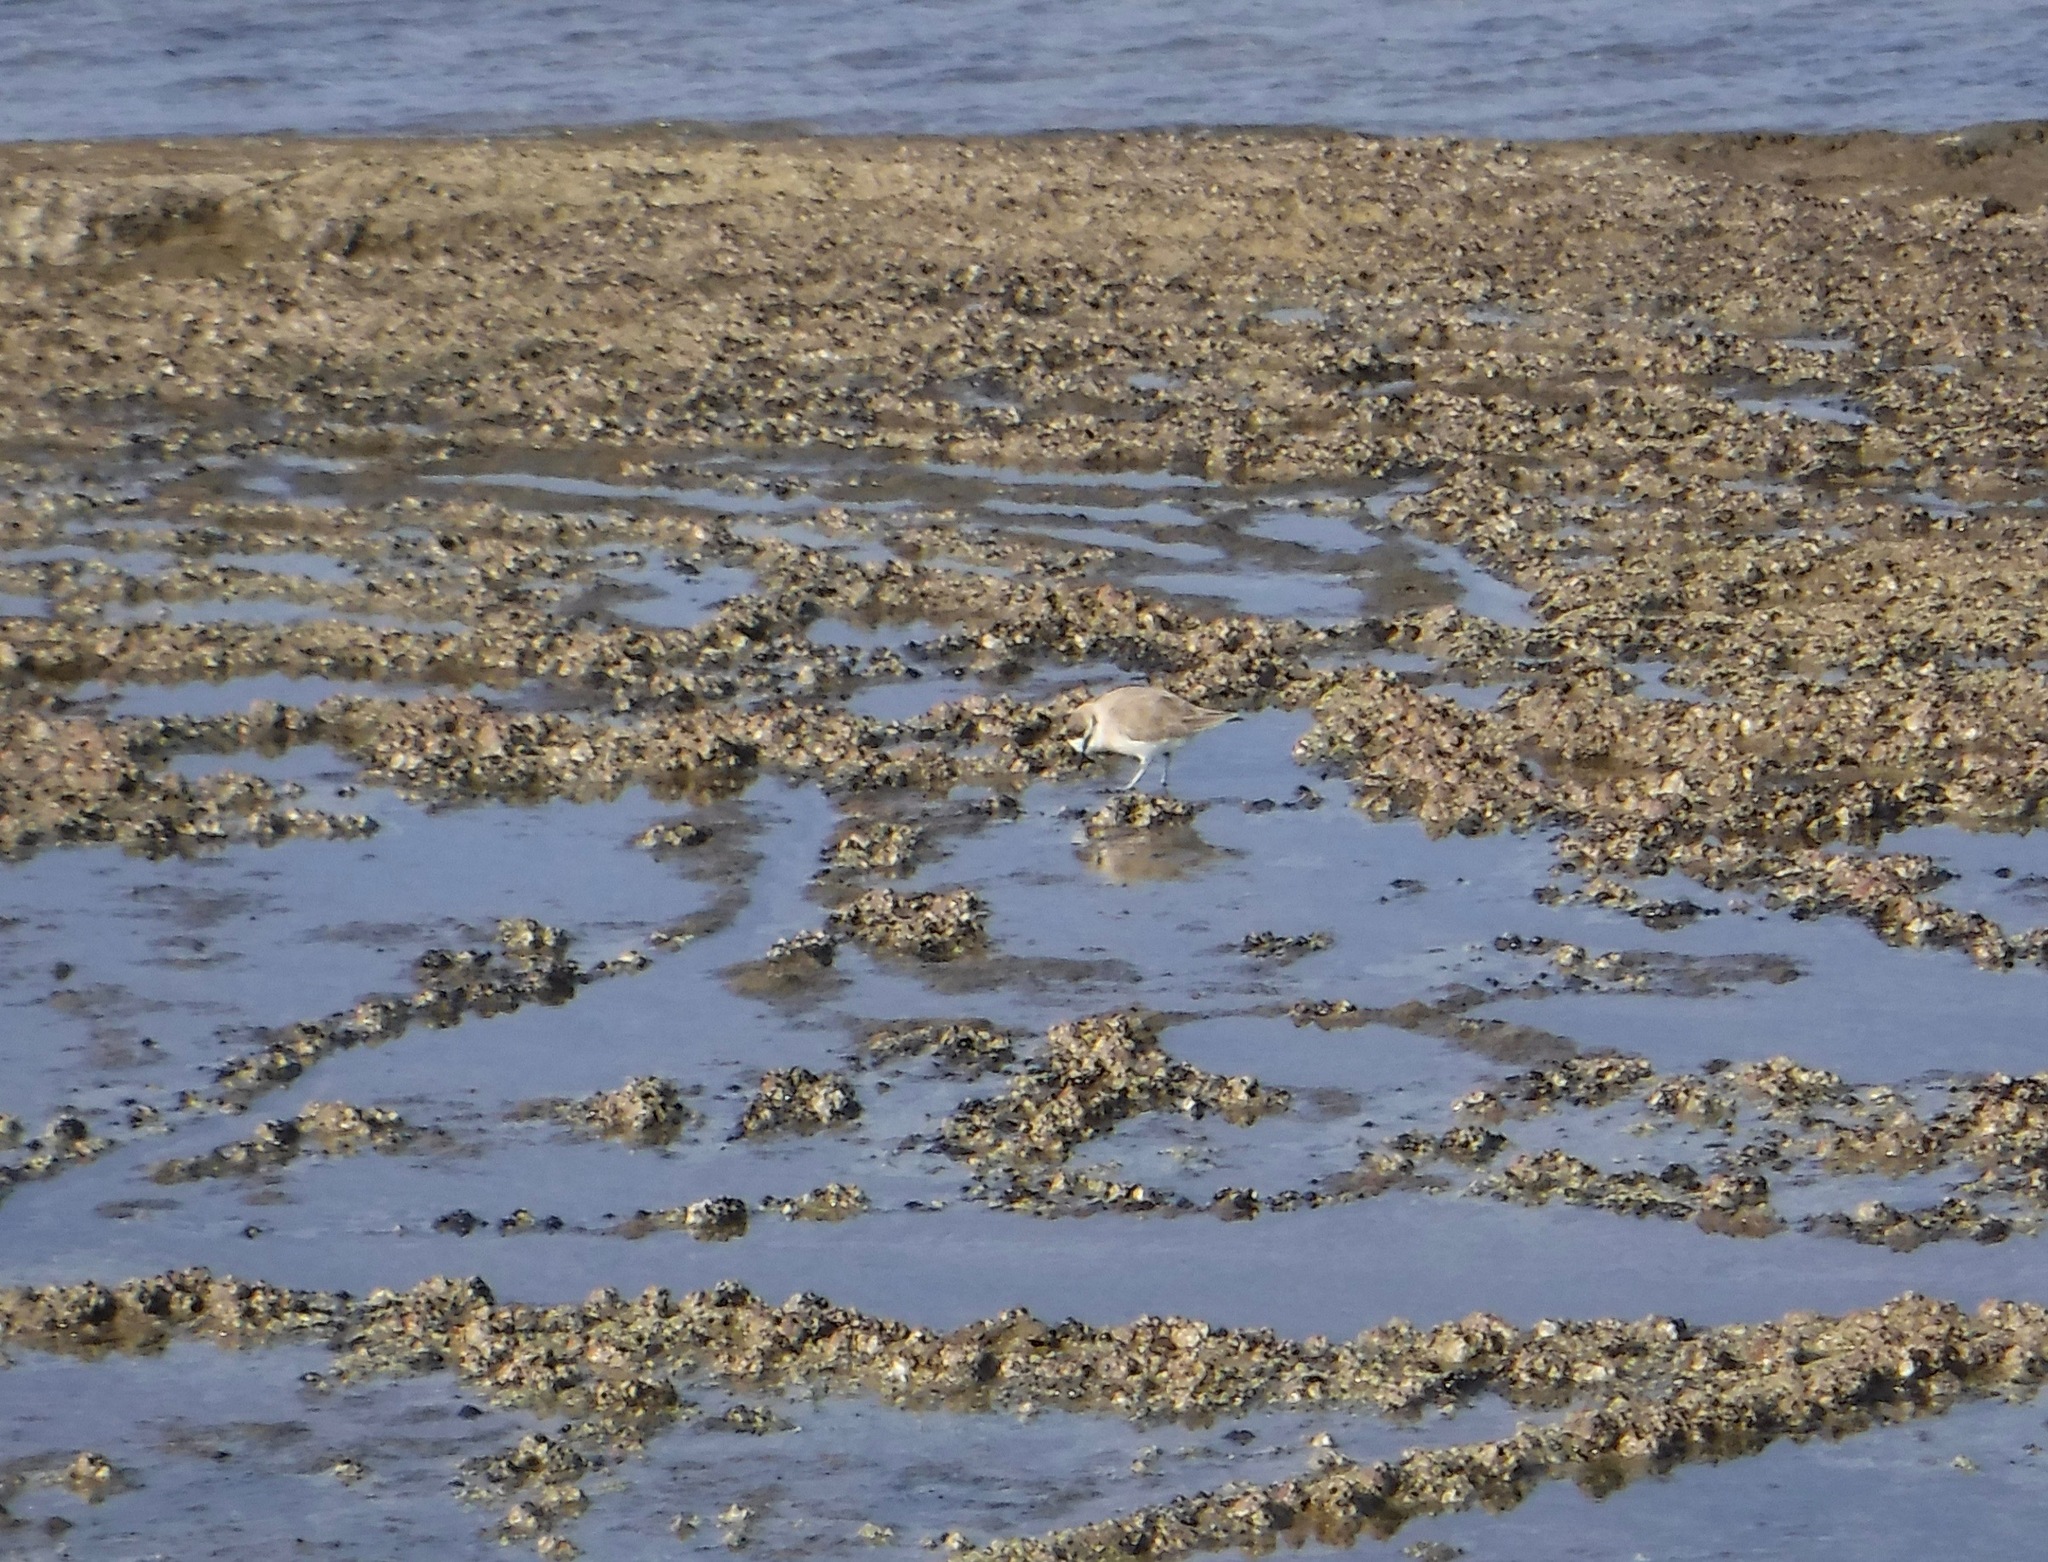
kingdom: Animalia
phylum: Chordata
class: Aves
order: Charadriiformes
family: Charadriidae
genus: Anarhynchus
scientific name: Anarhynchus
